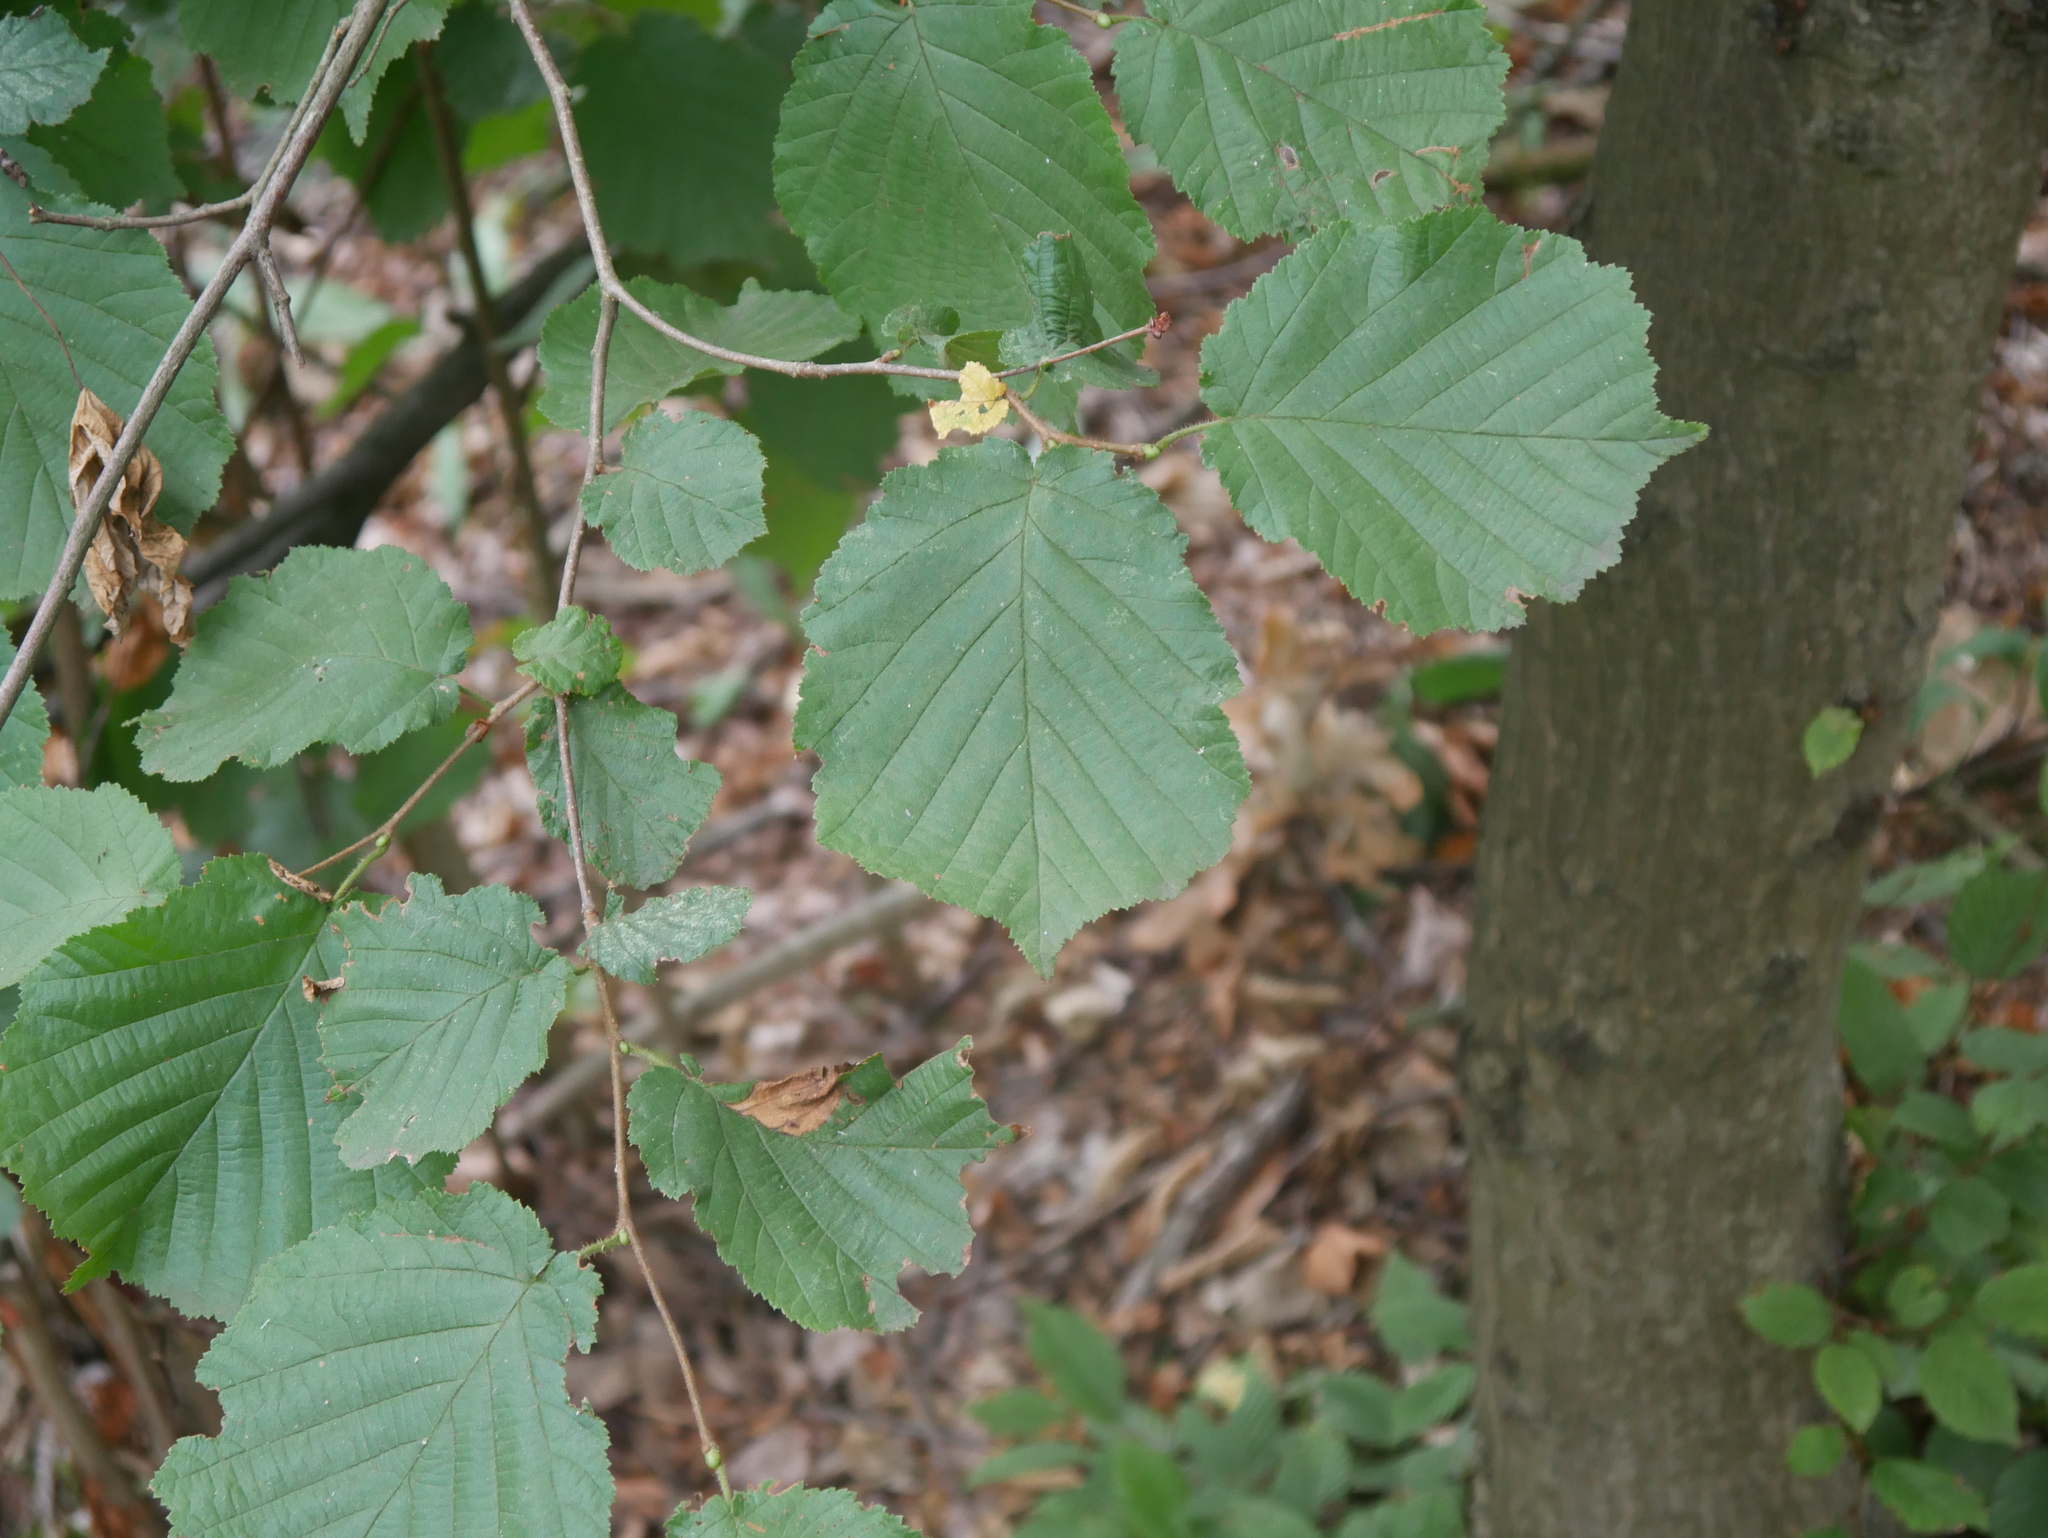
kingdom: Plantae
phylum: Tracheophyta
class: Magnoliopsida
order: Fagales
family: Betulaceae
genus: Corylus
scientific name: Corylus avellana
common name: European hazel
